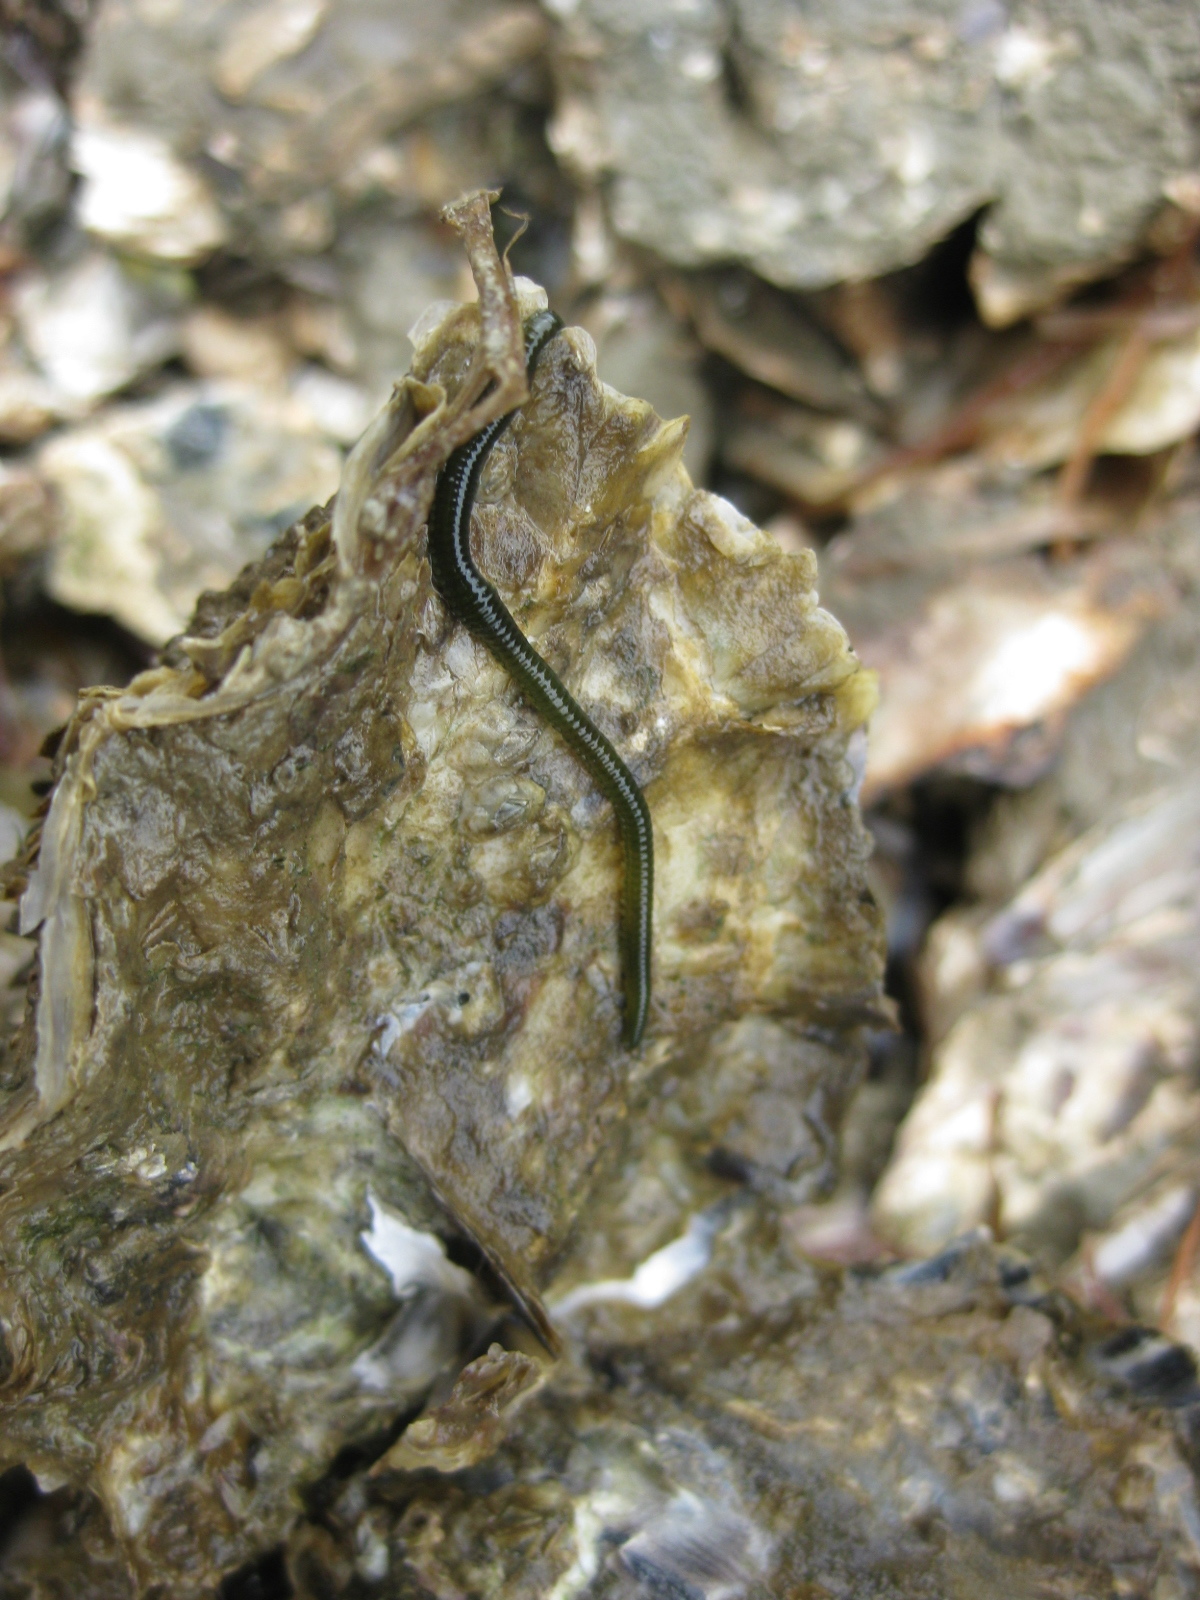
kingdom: Animalia
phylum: Annelida
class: Polychaeta
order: Phyllodocida
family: Phyllodocidae
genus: Eulalia
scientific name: Eulalia microphylla
